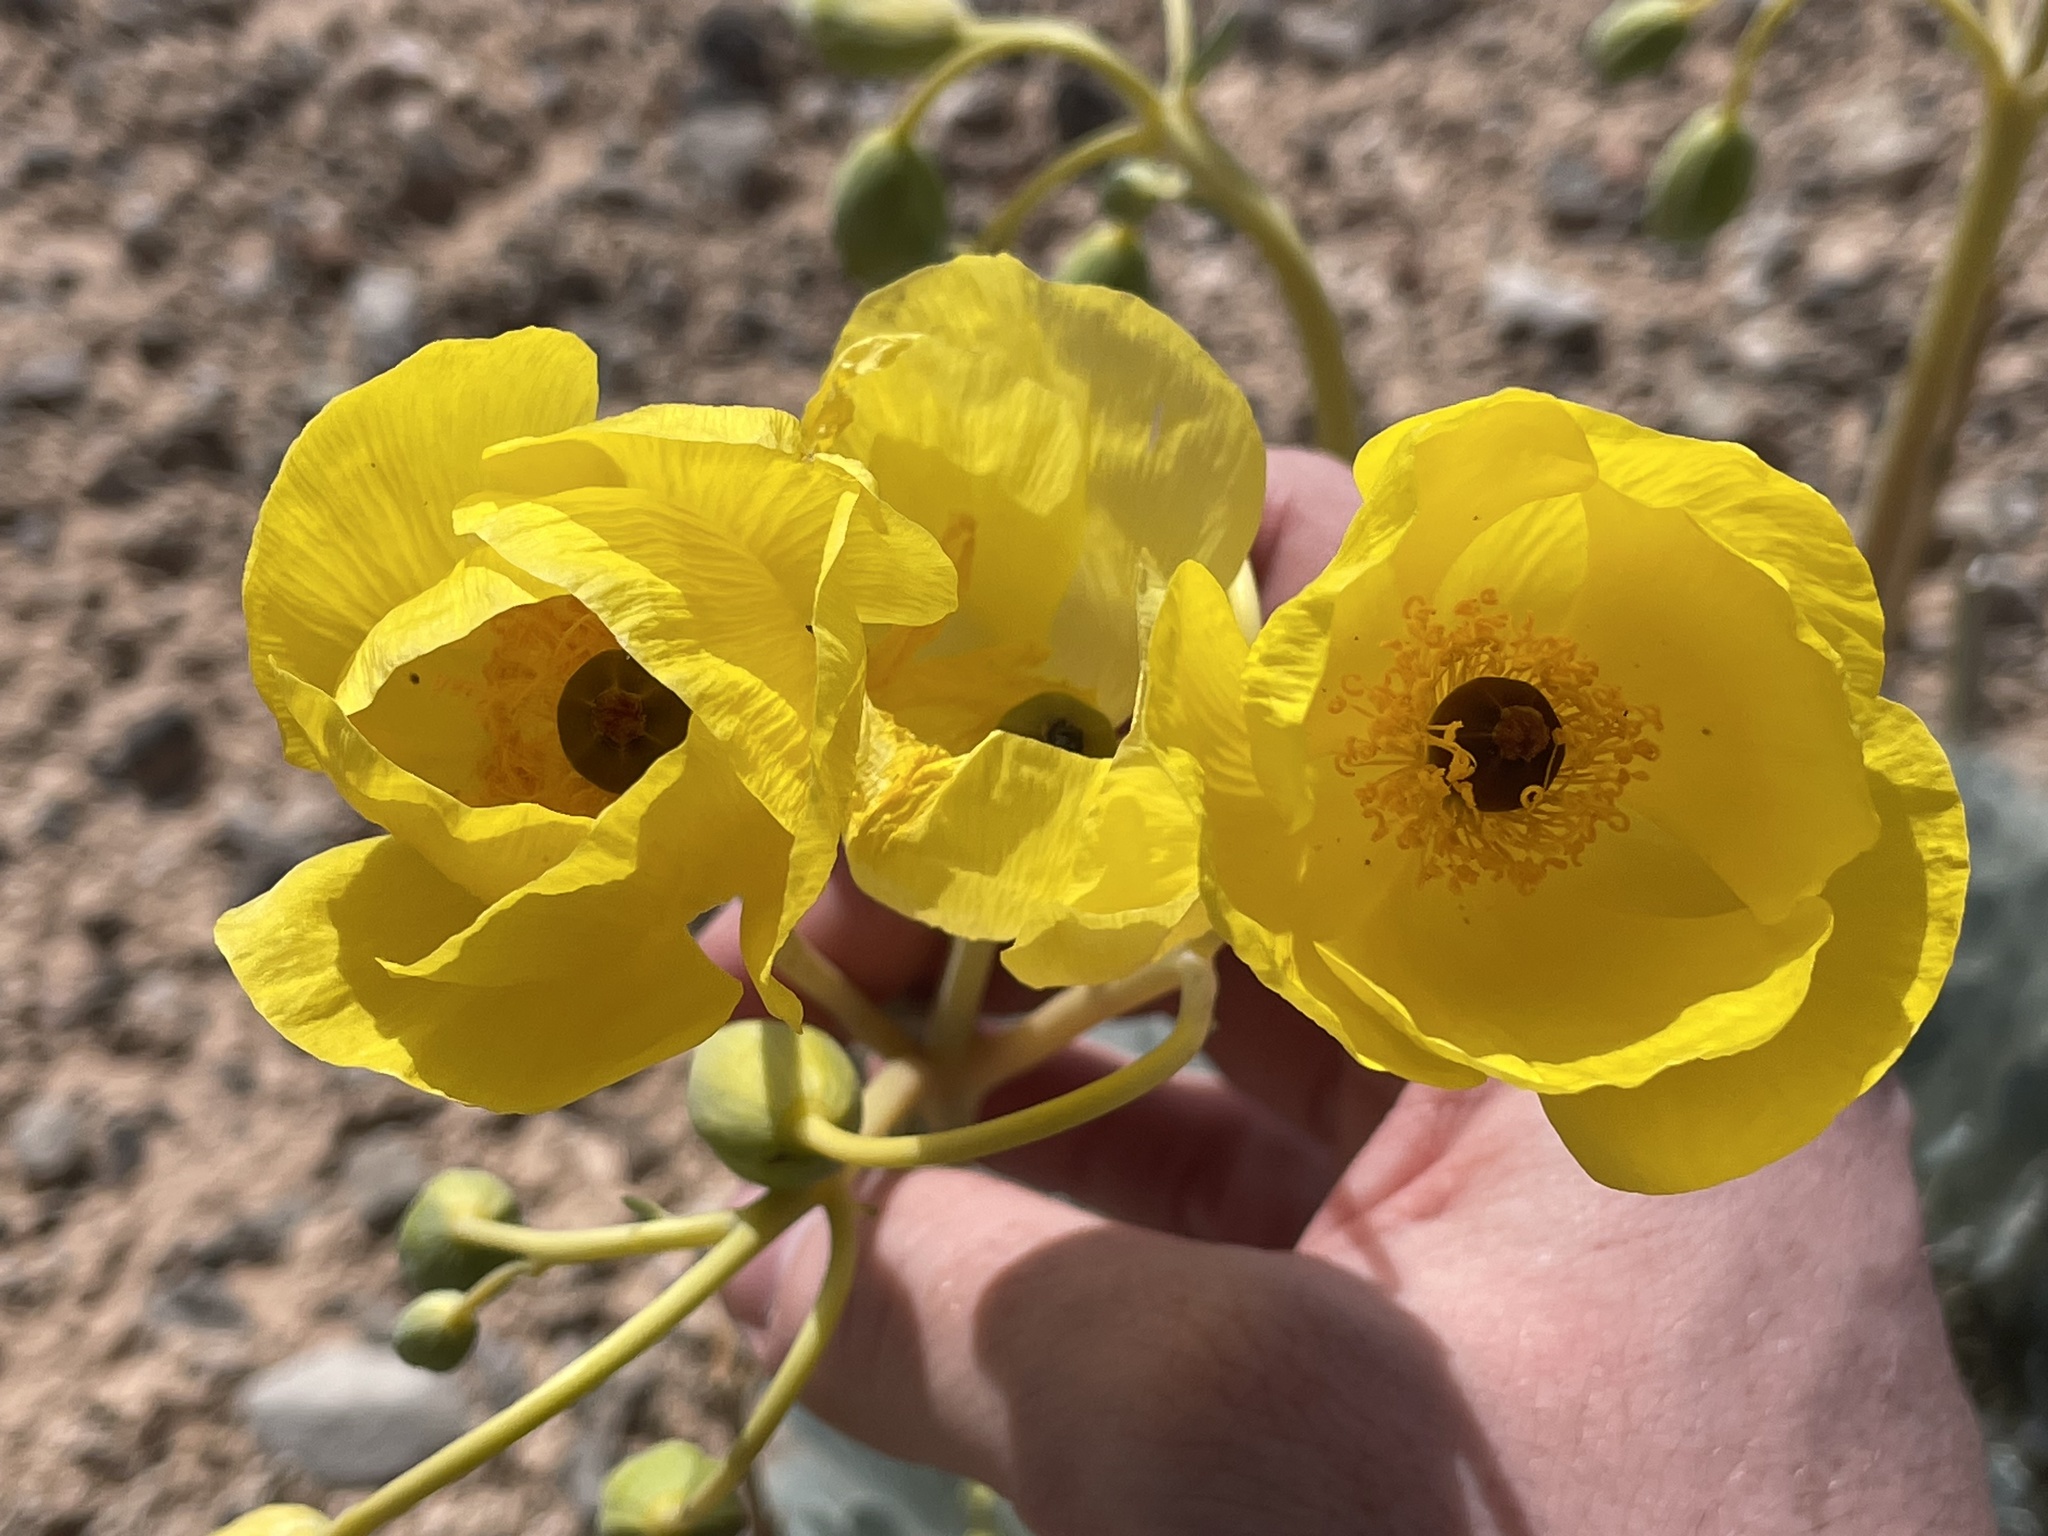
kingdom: Plantae
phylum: Tracheophyta
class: Magnoliopsida
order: Ranunculales
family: Papaveraceae
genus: Arctomecon
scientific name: Arctomecon californicum
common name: Golden bearclaw-poppy
